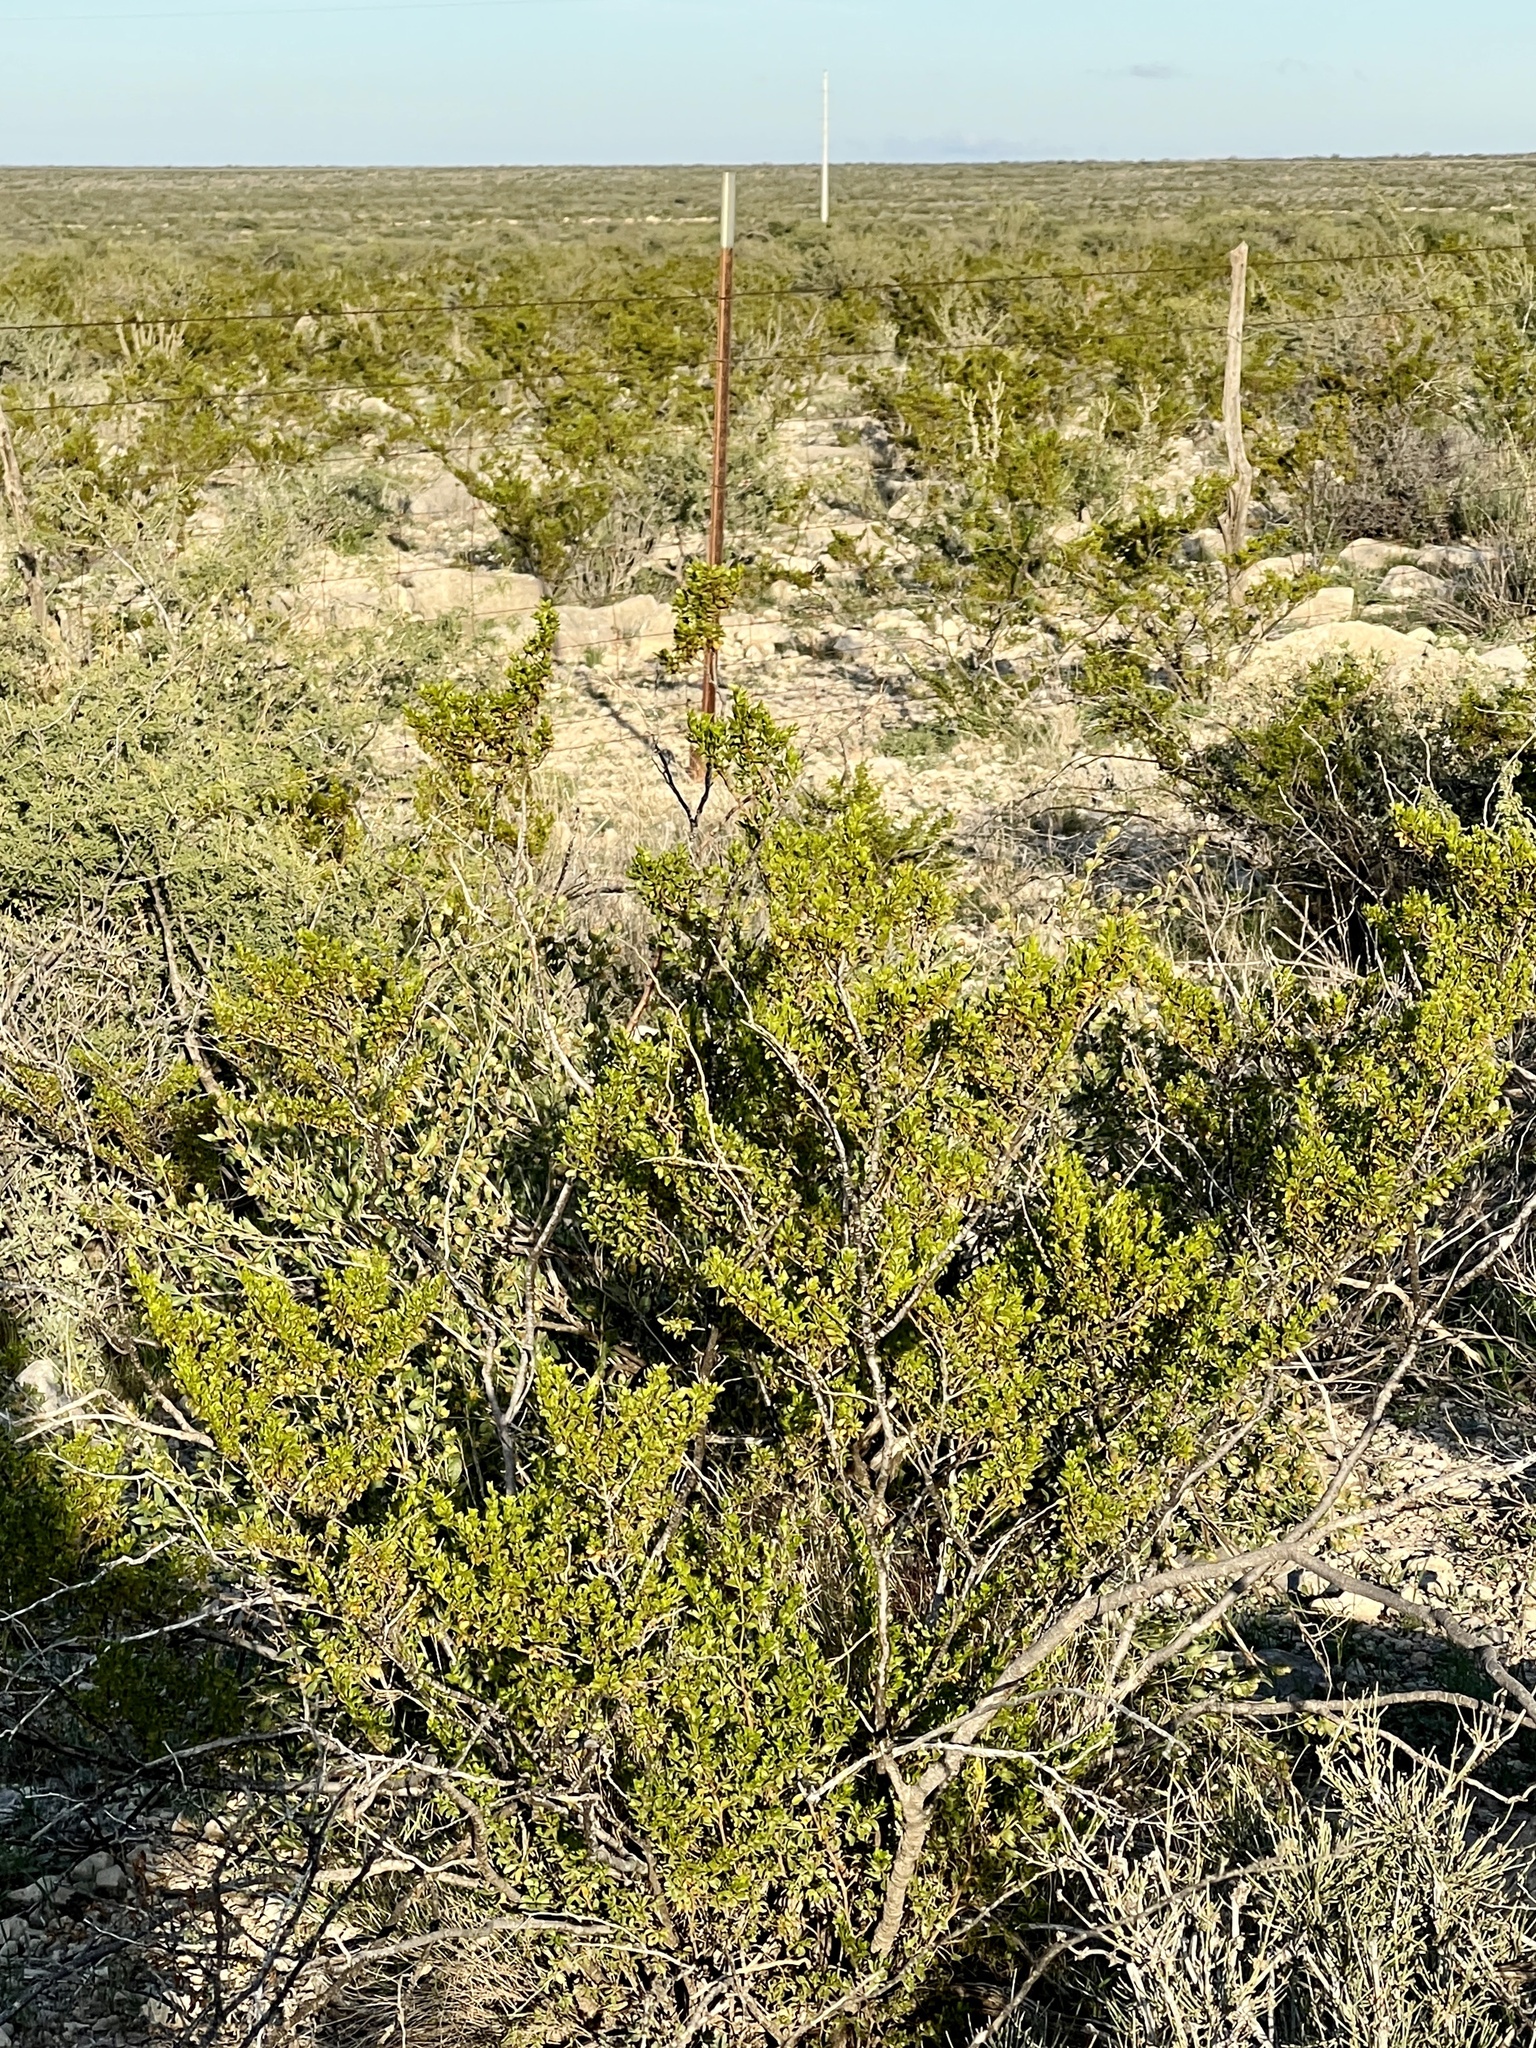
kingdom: Plantae
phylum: Tracheophyta
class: Magnoliopsida
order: Zygophyllales
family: Zygophyllaceae
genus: Larrea
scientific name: Larrea tridentata
